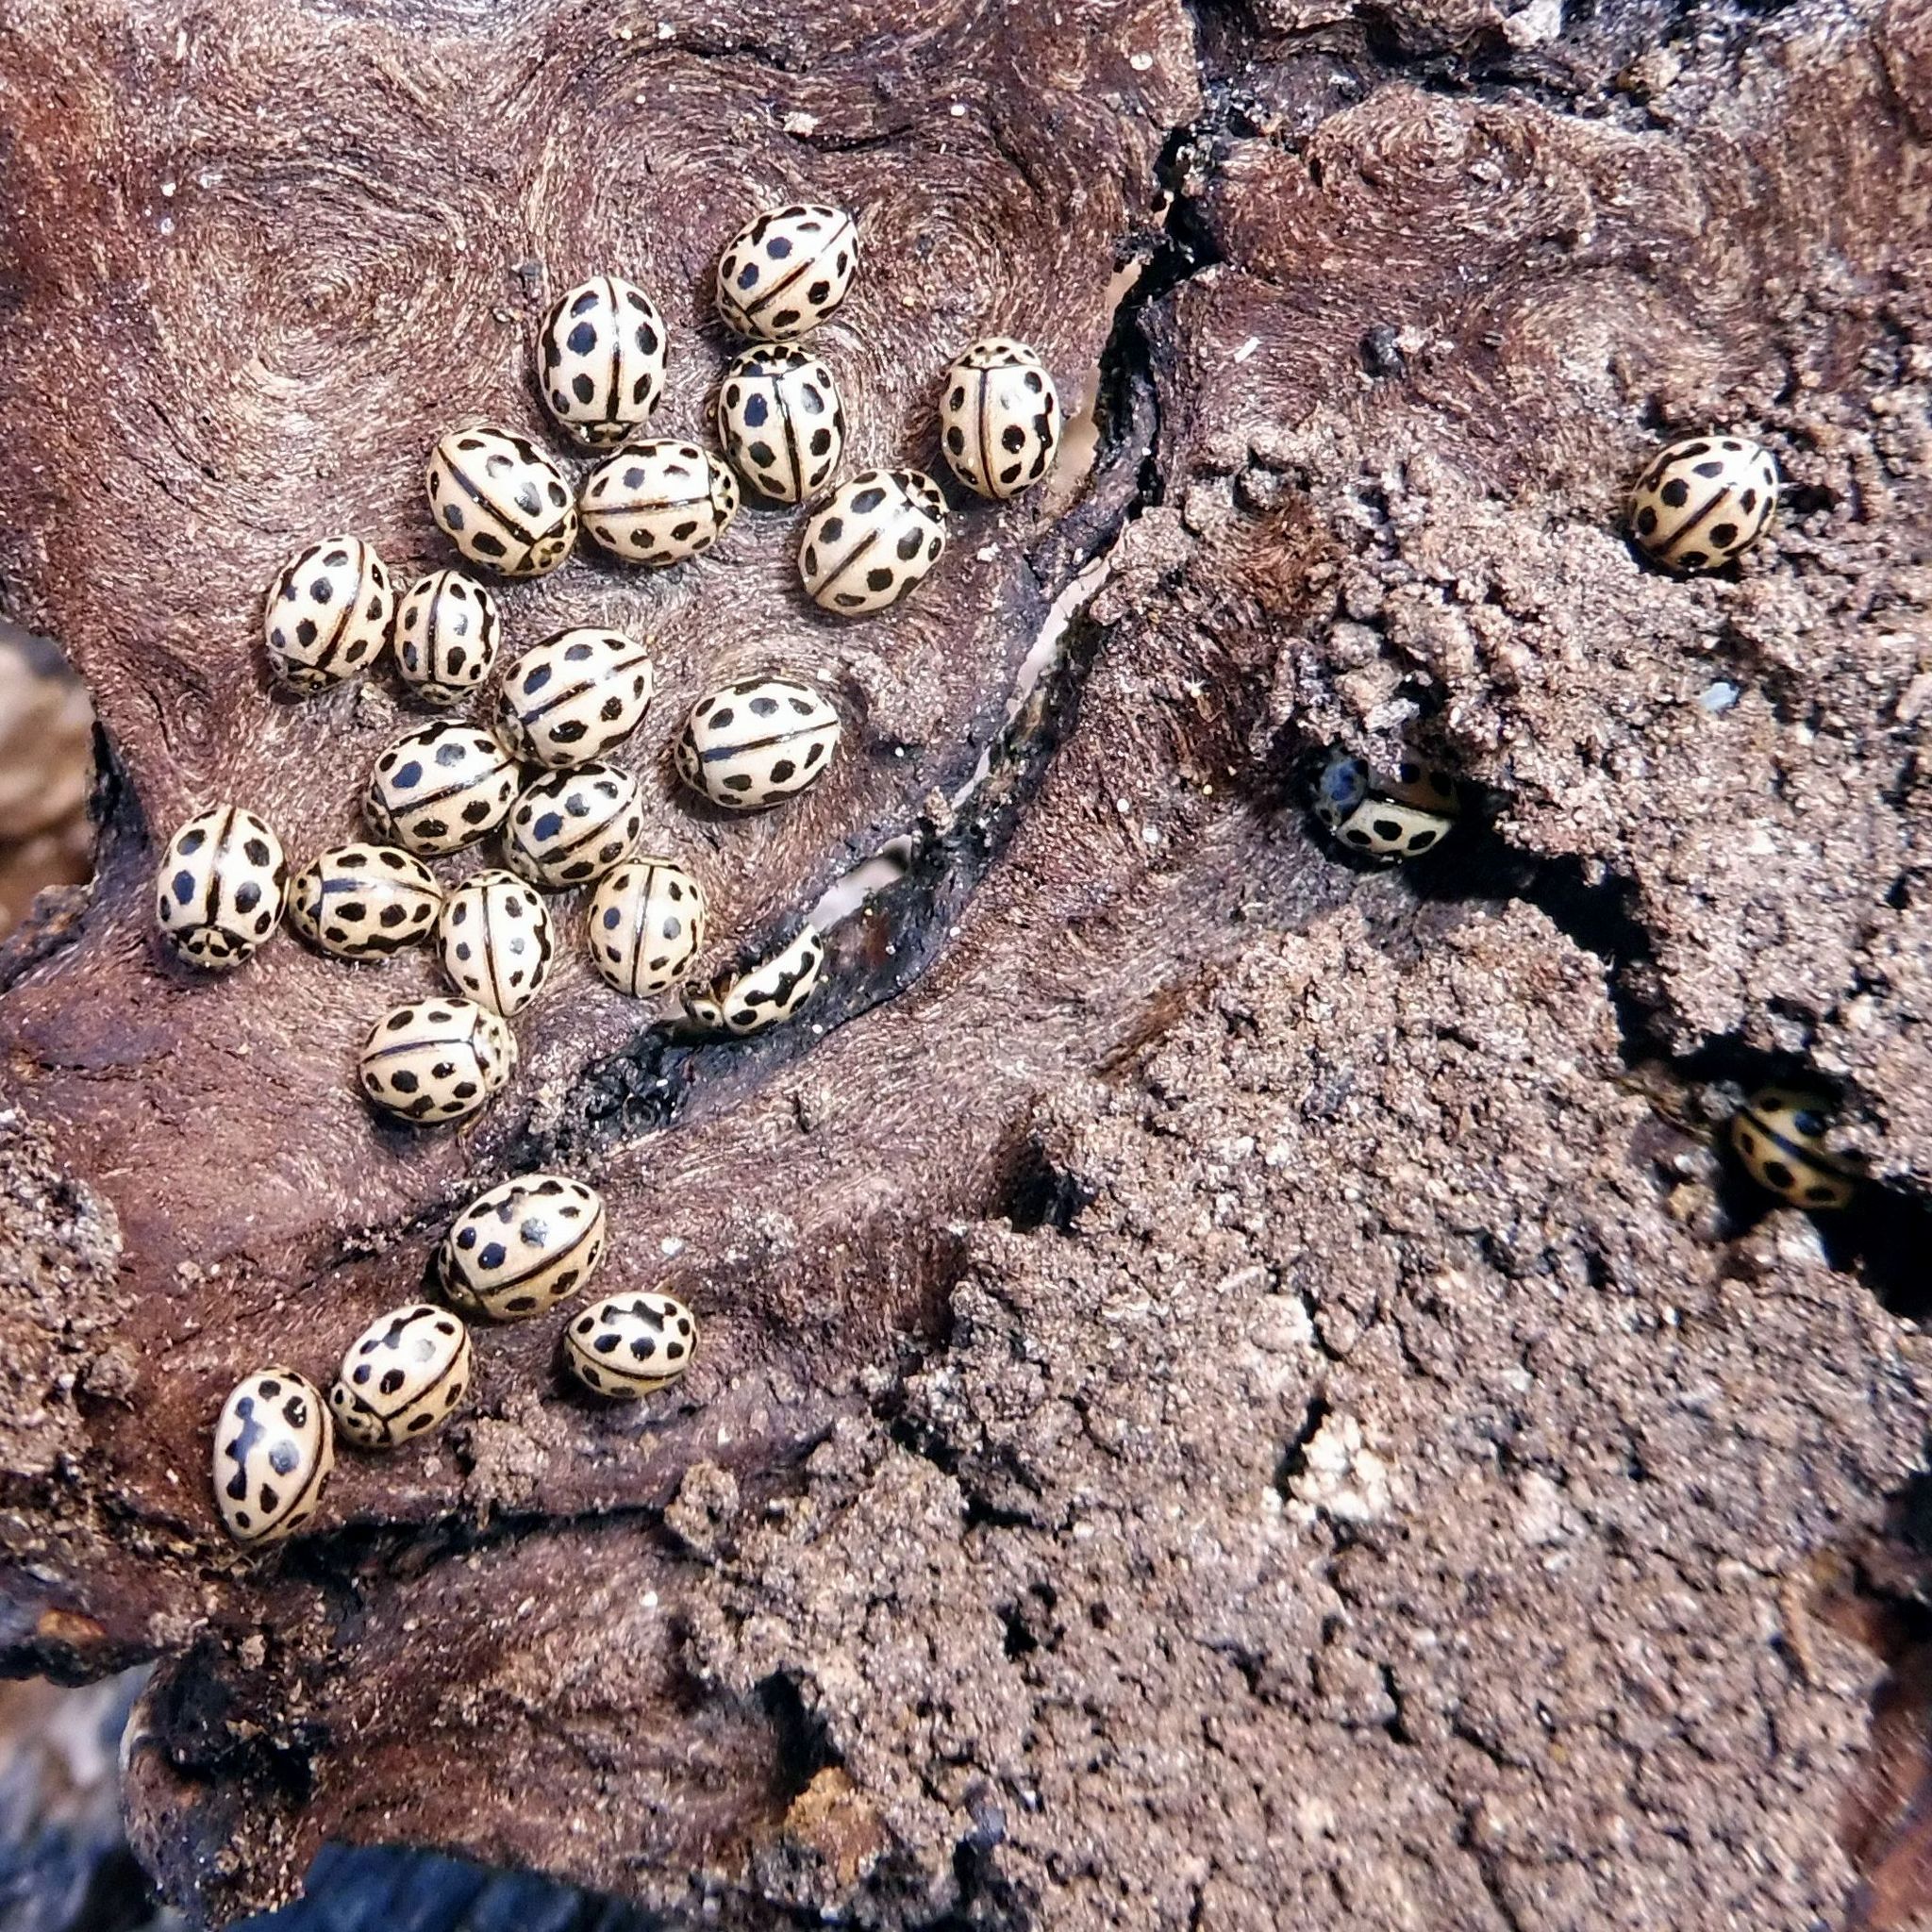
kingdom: Animalia
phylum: Arthropoda
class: Insecta
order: Coleoptera
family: Coccinellidae
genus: Tytthaspis
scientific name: Tytthaspis sedecimpunctata
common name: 16-spot ladybird
